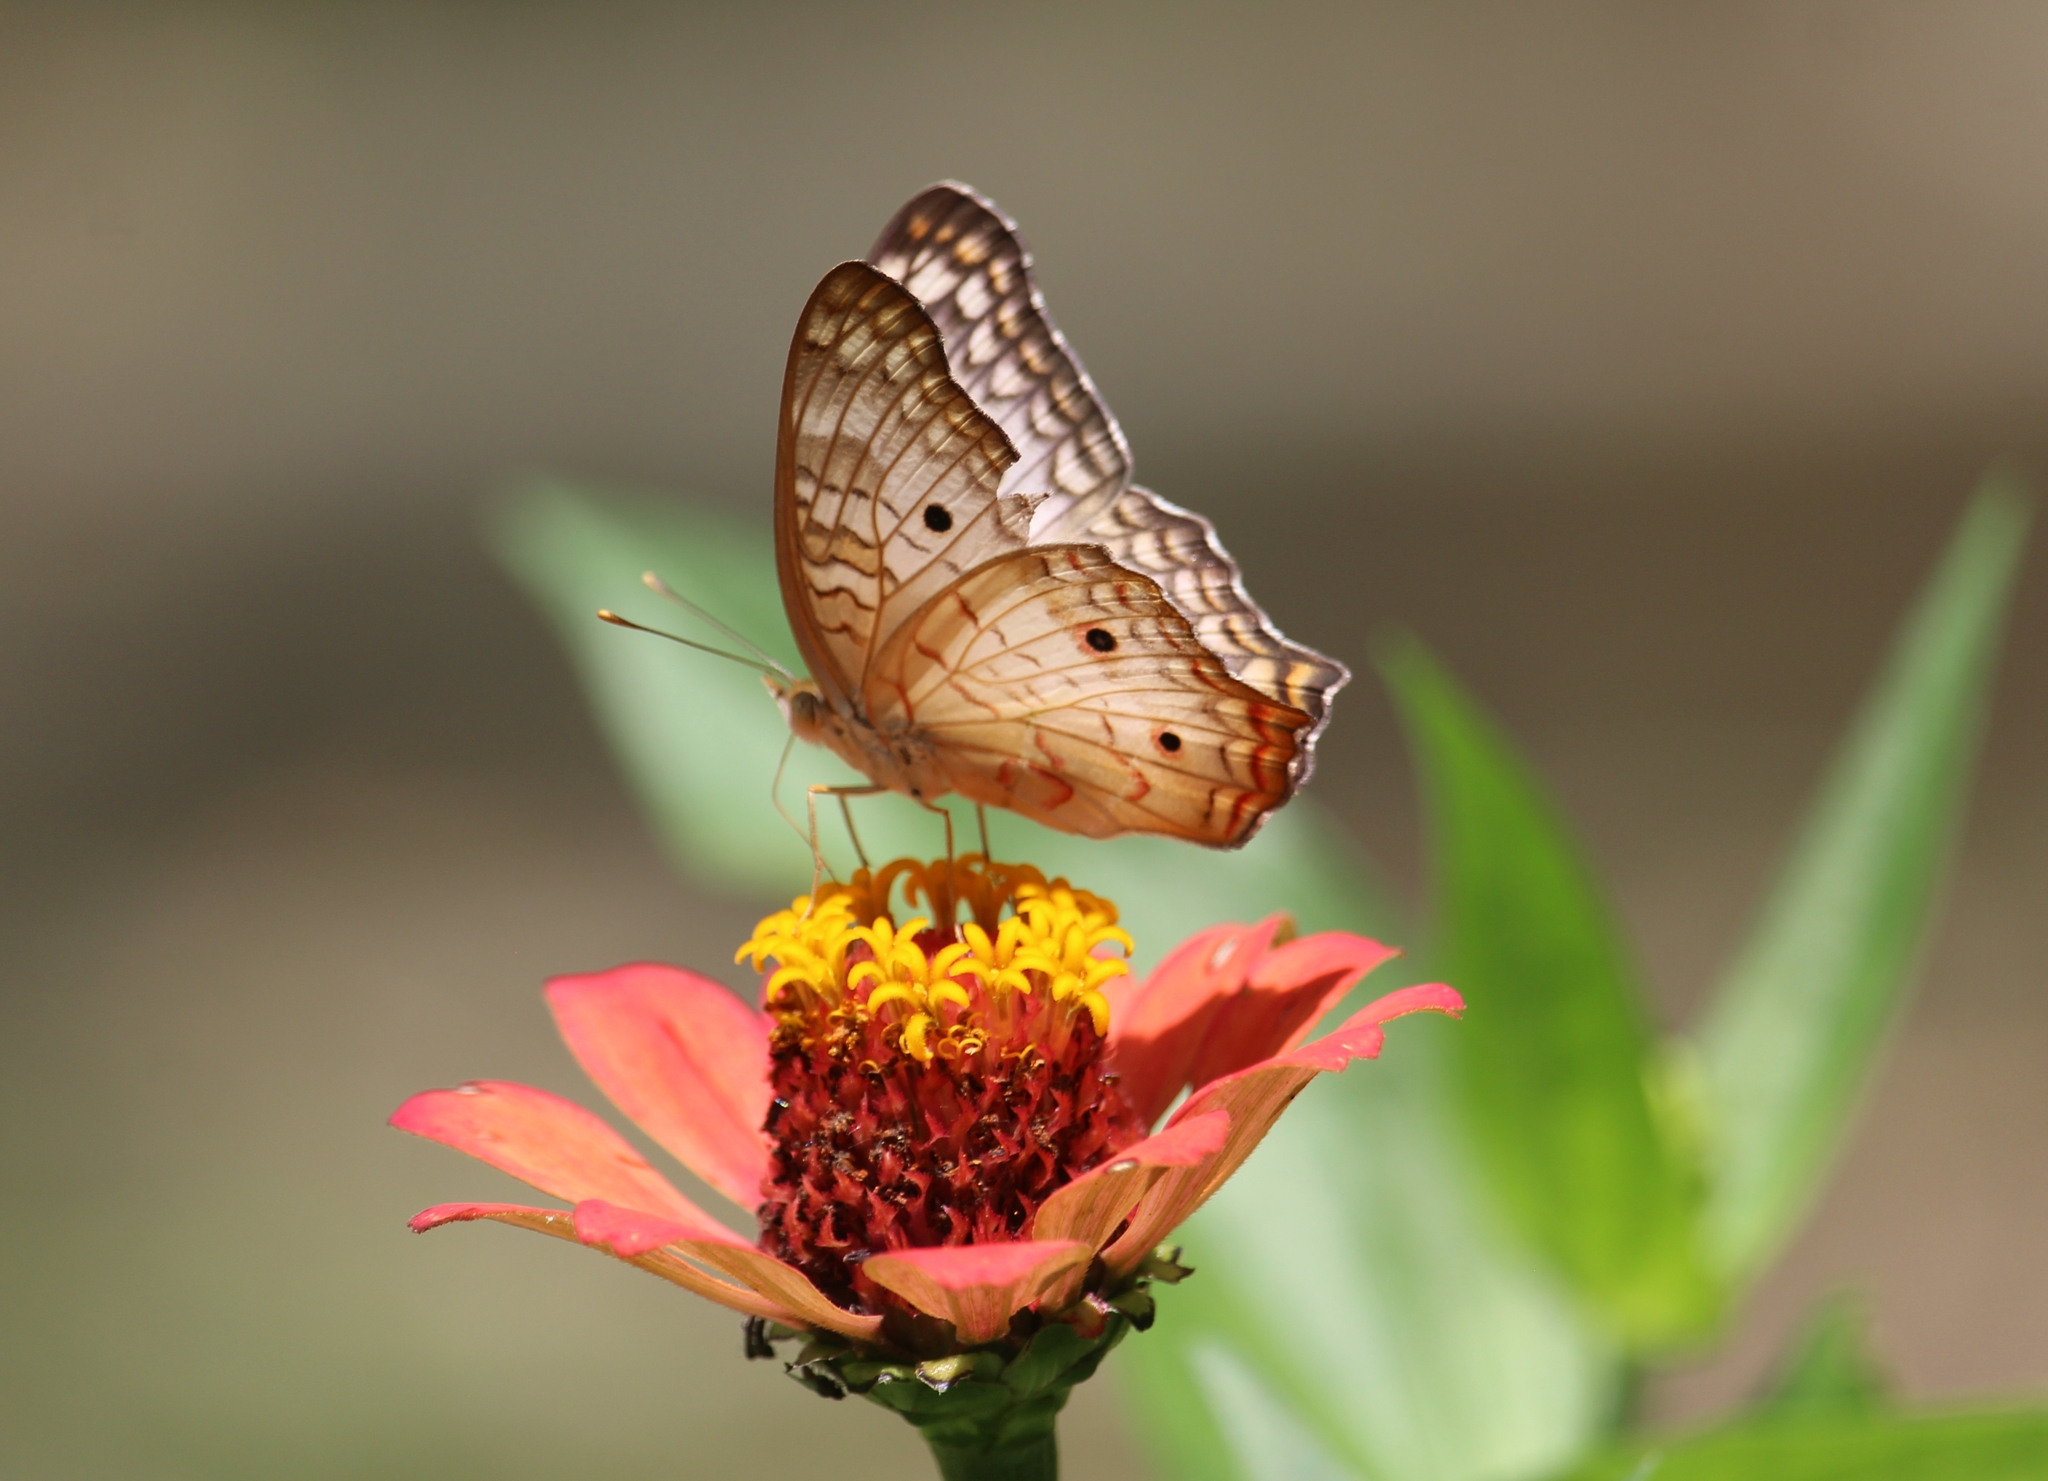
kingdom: Animalia
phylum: Arthropoda
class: Insecta
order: Lepidoptera
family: Nymphalidae
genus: Anartia
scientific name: Anartia jatrophae
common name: White peacock
